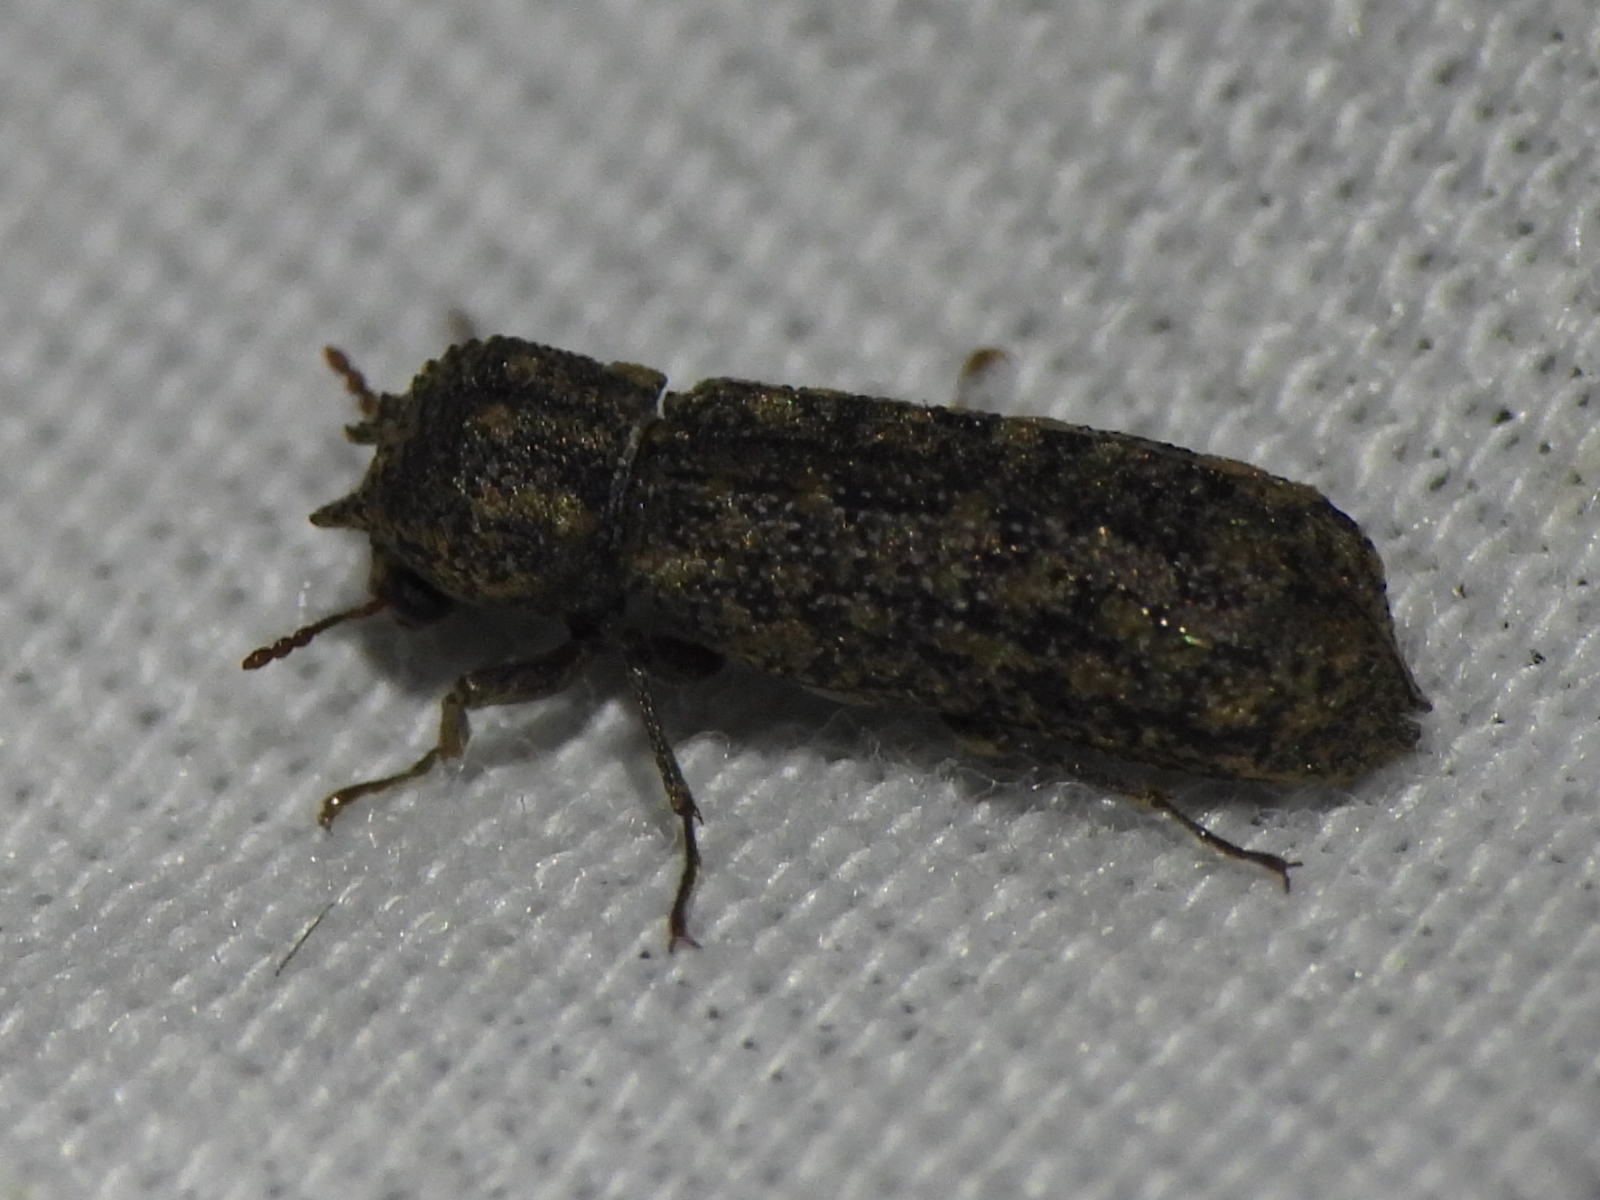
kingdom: Animalia
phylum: Arthropoda
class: Insecta
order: Coleoptera
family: Bostrichidae
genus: Lichenophanes
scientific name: Lichenophanes bicornis
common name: Two-horned powder-post beetle
